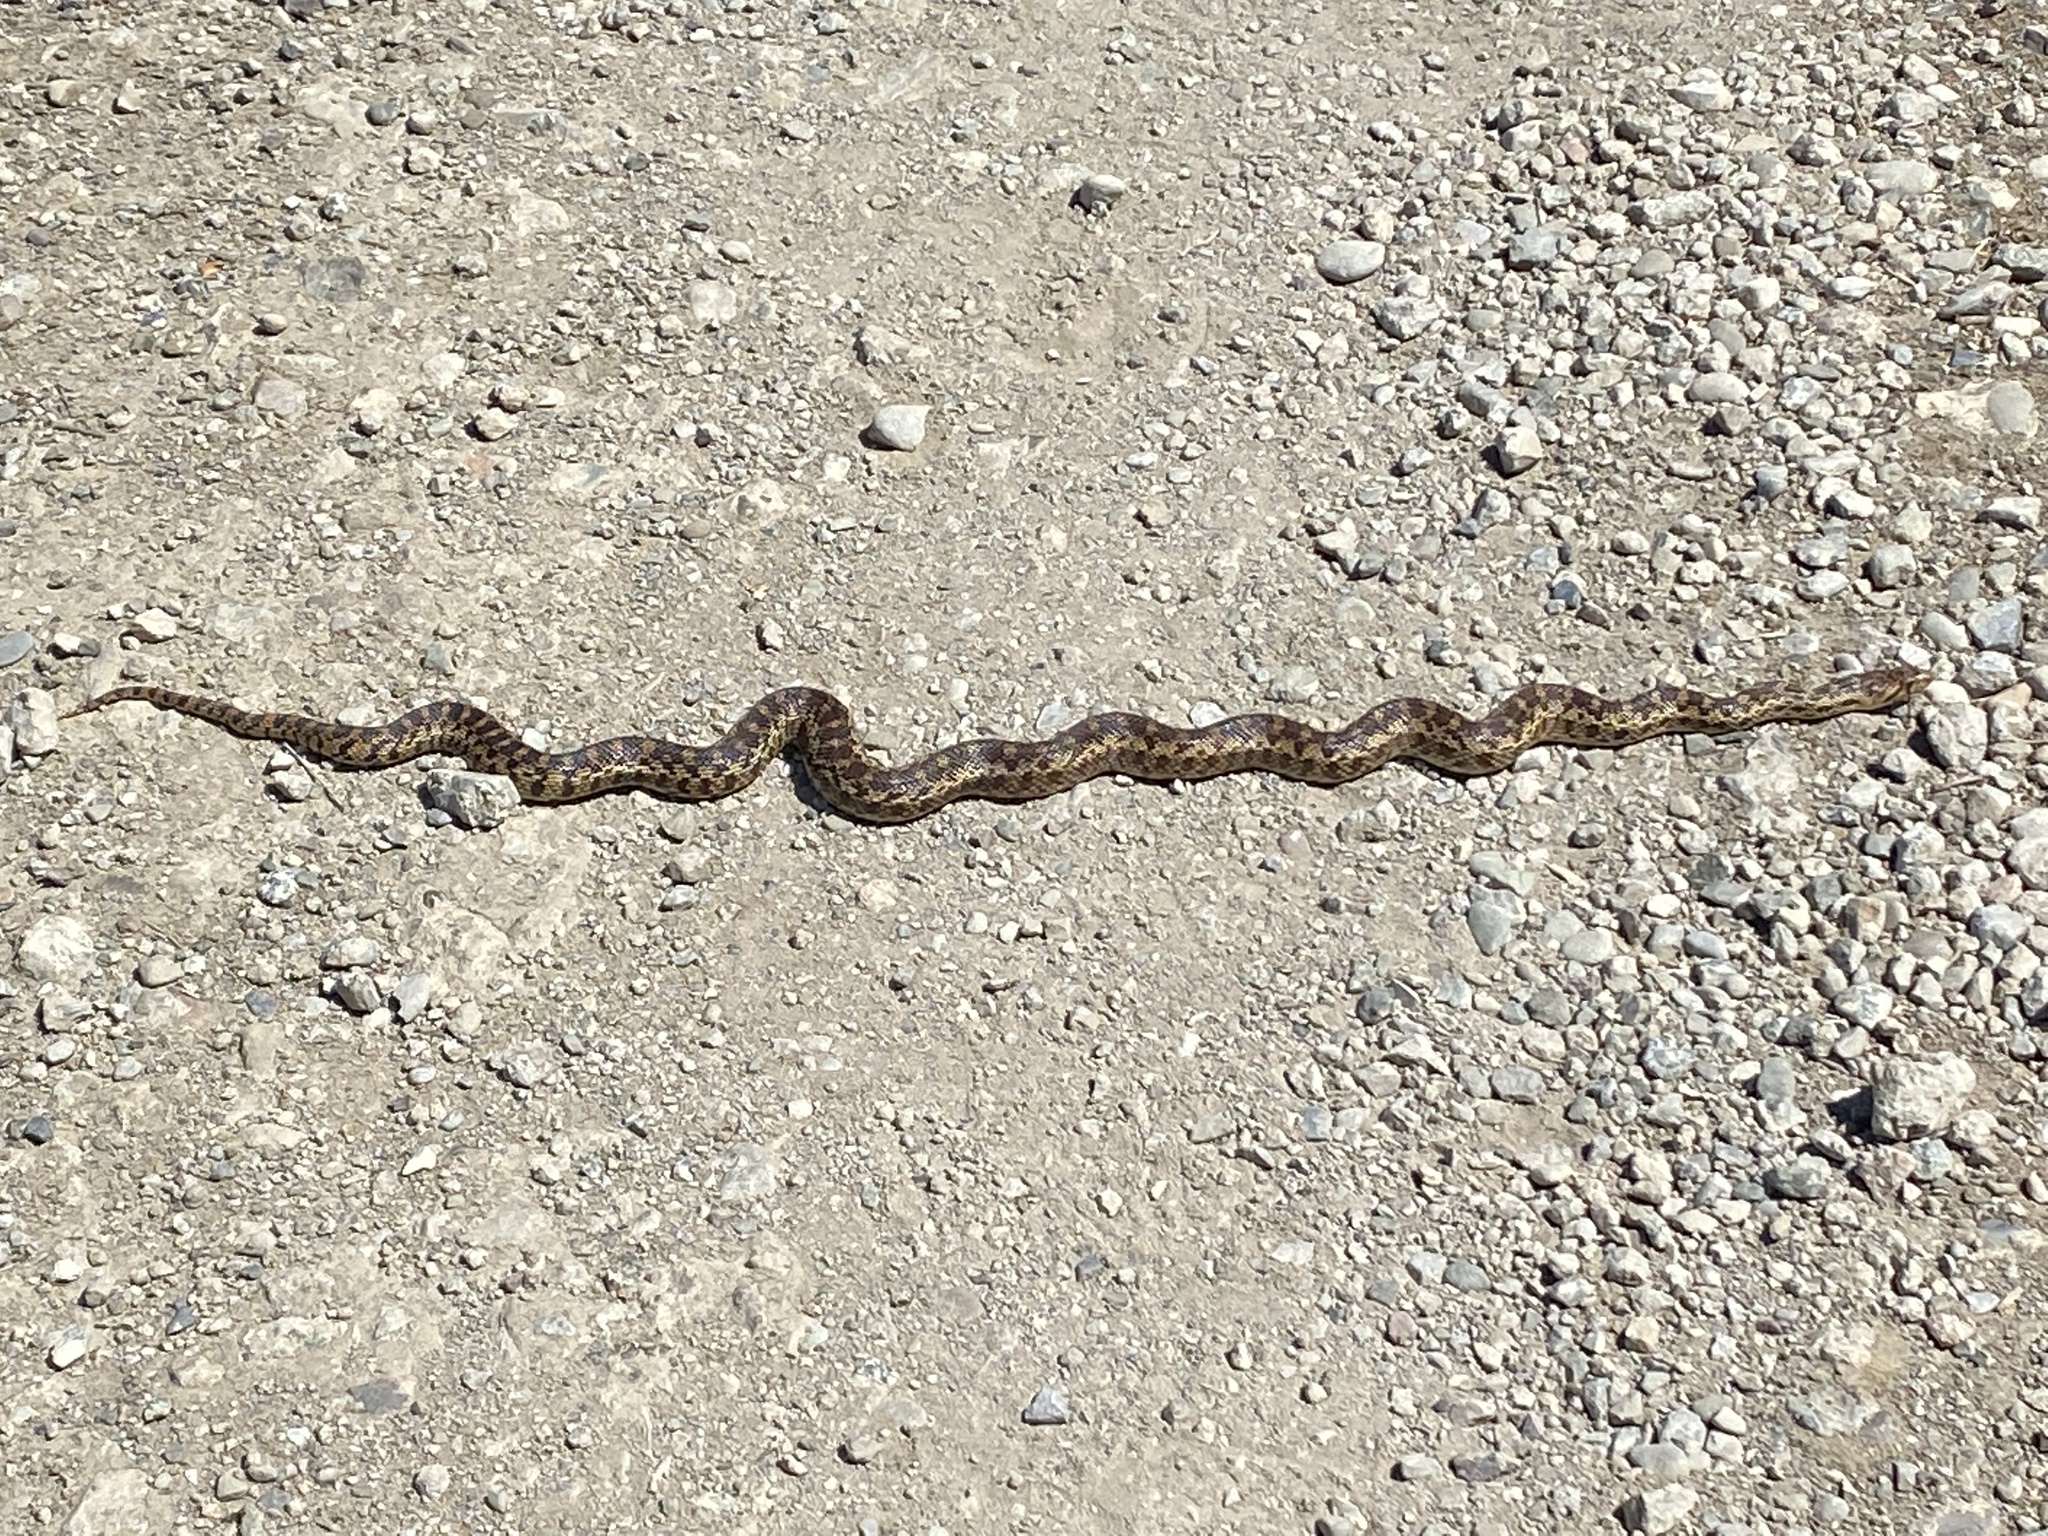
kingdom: Animalia
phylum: Chordata
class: Squamata
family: Colubridae
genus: Pituophis
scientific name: Pituophis catenifer
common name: Gopher snake
